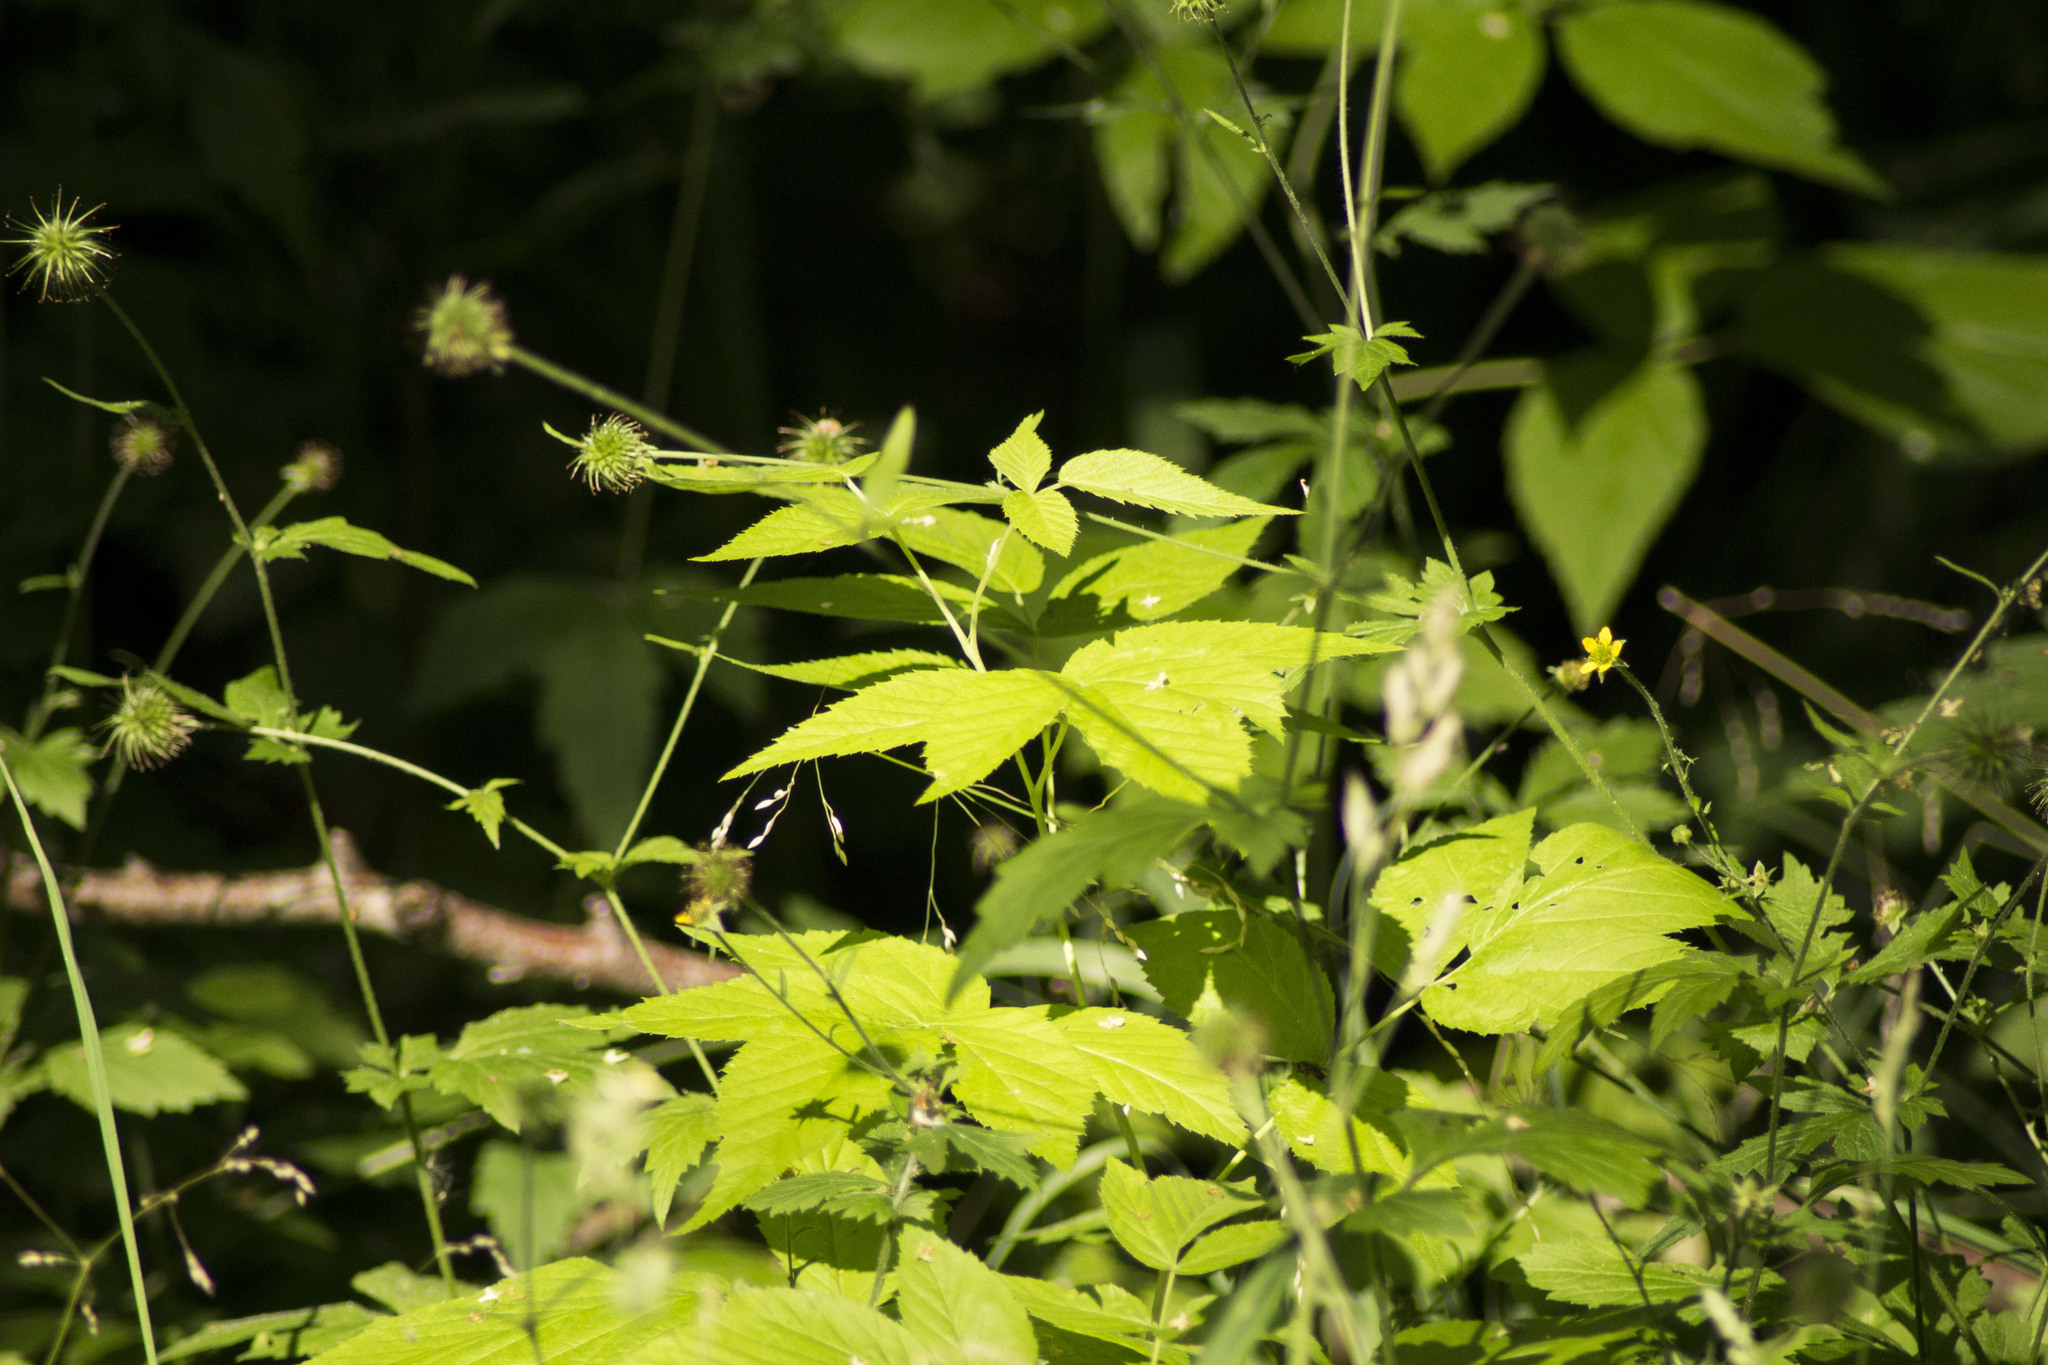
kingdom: Plantae
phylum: Tracheophyta
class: Magnoliopsida
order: Rosales
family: Rosaceae
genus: Geum
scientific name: Geum urbanum
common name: Wood avens
